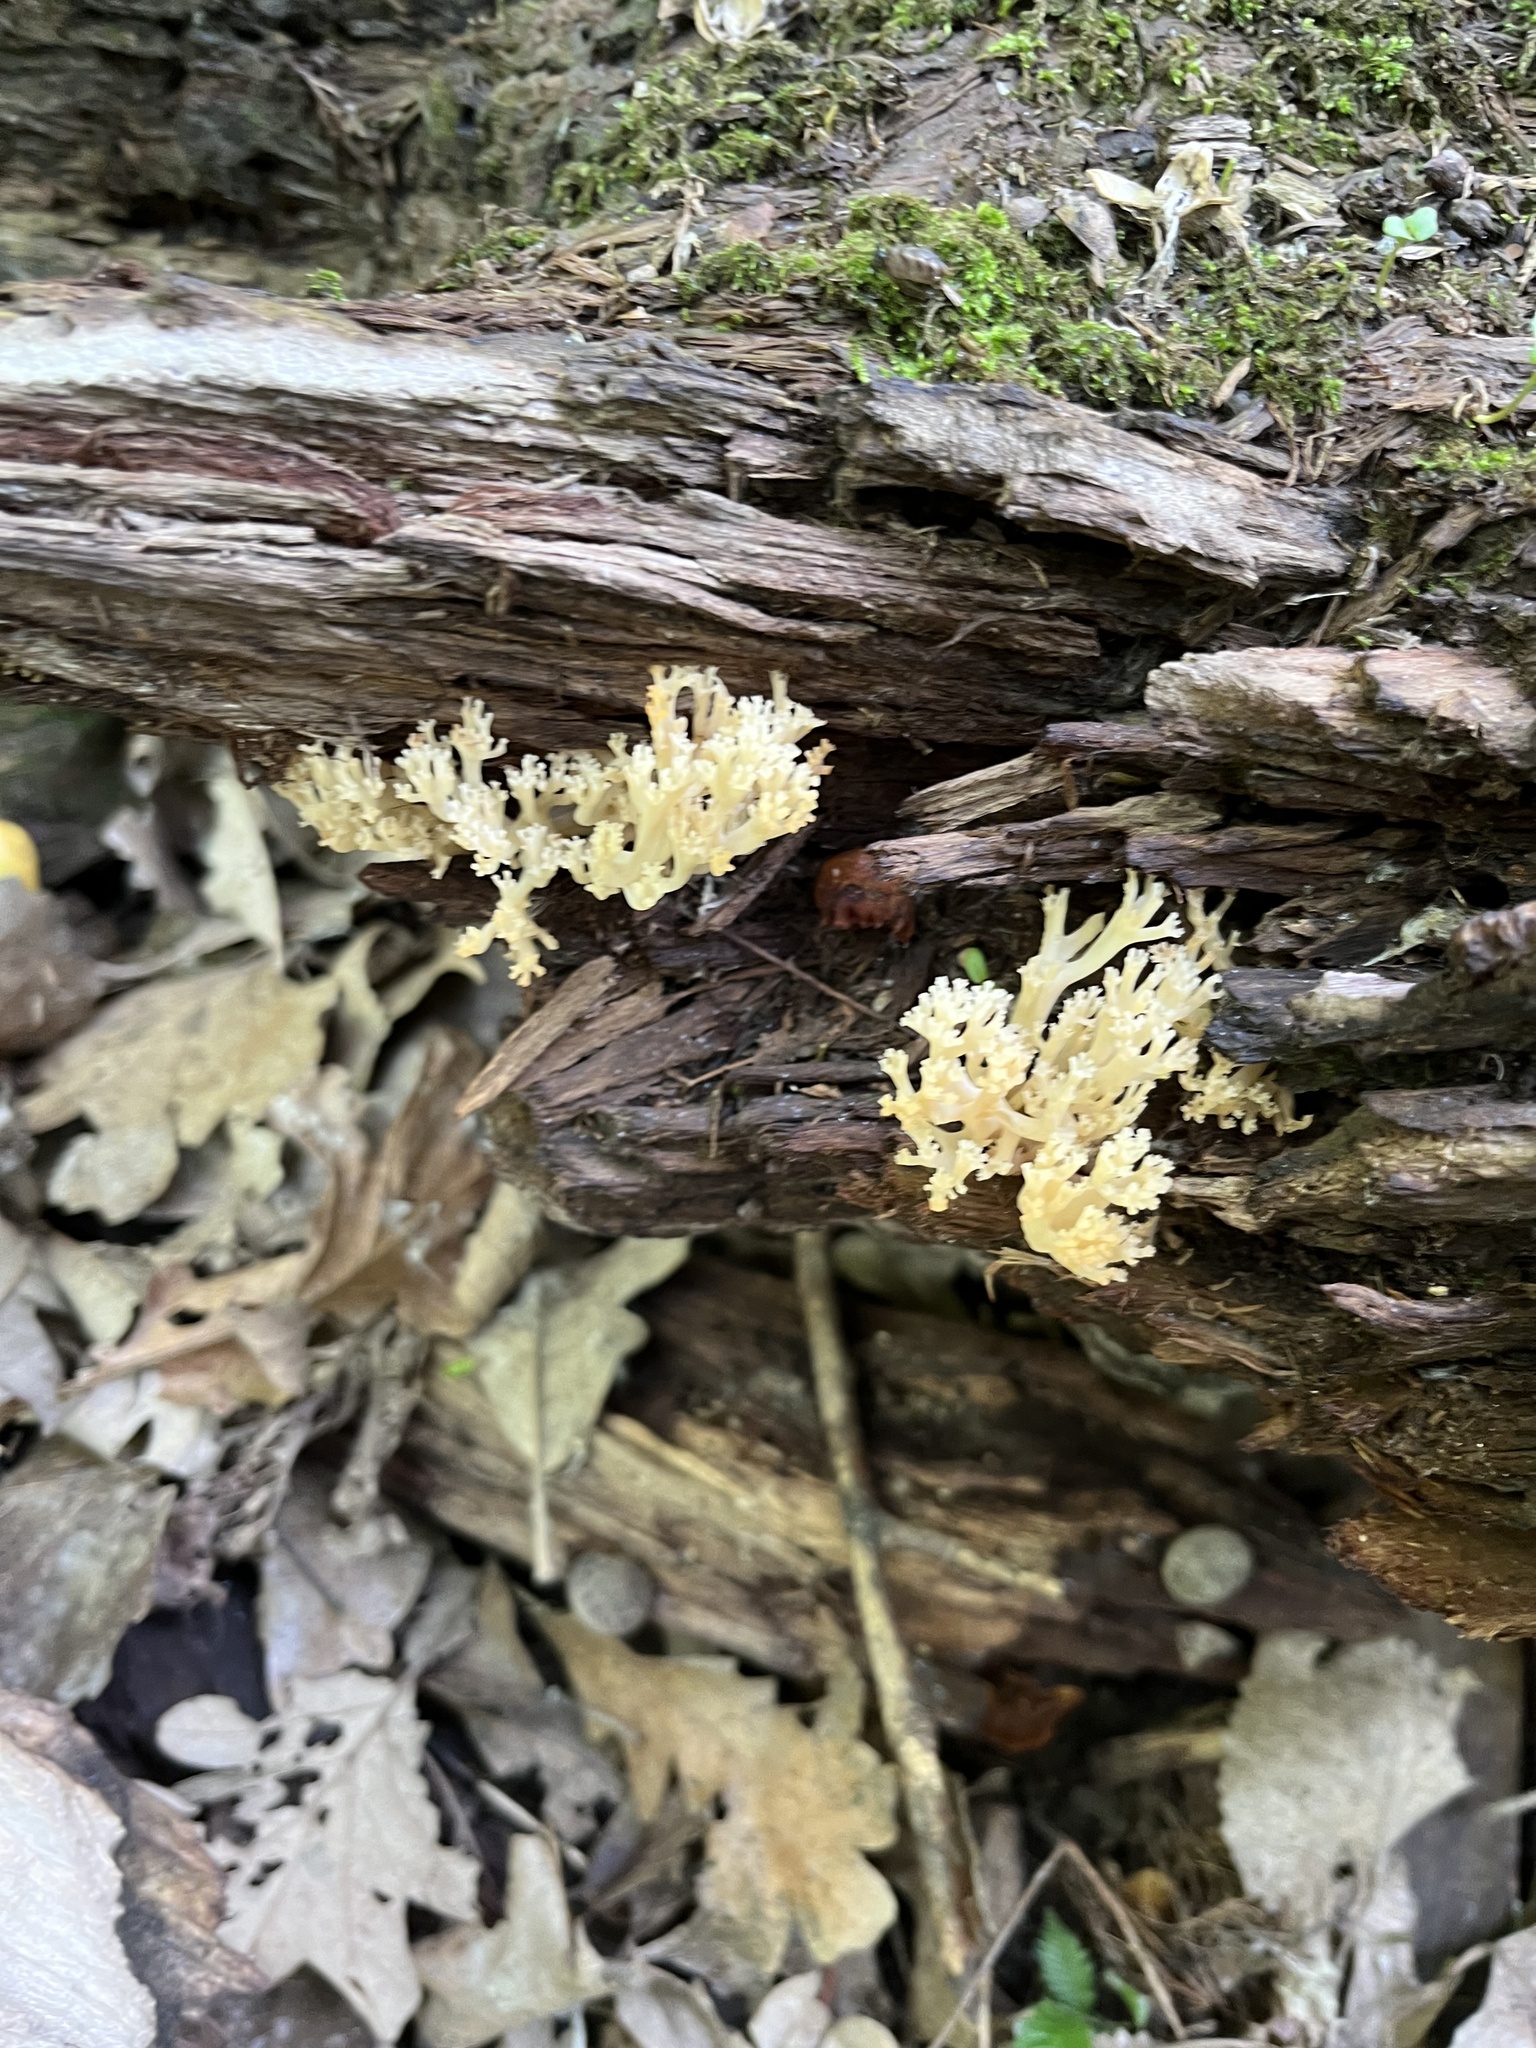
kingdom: Fungi
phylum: Basidiomycota
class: Agaricomycetes
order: Russulales
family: Auriscalpiaceae
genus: Artomyces
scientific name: Artomyces pyxidatus
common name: Crown-tipped coral fungus
